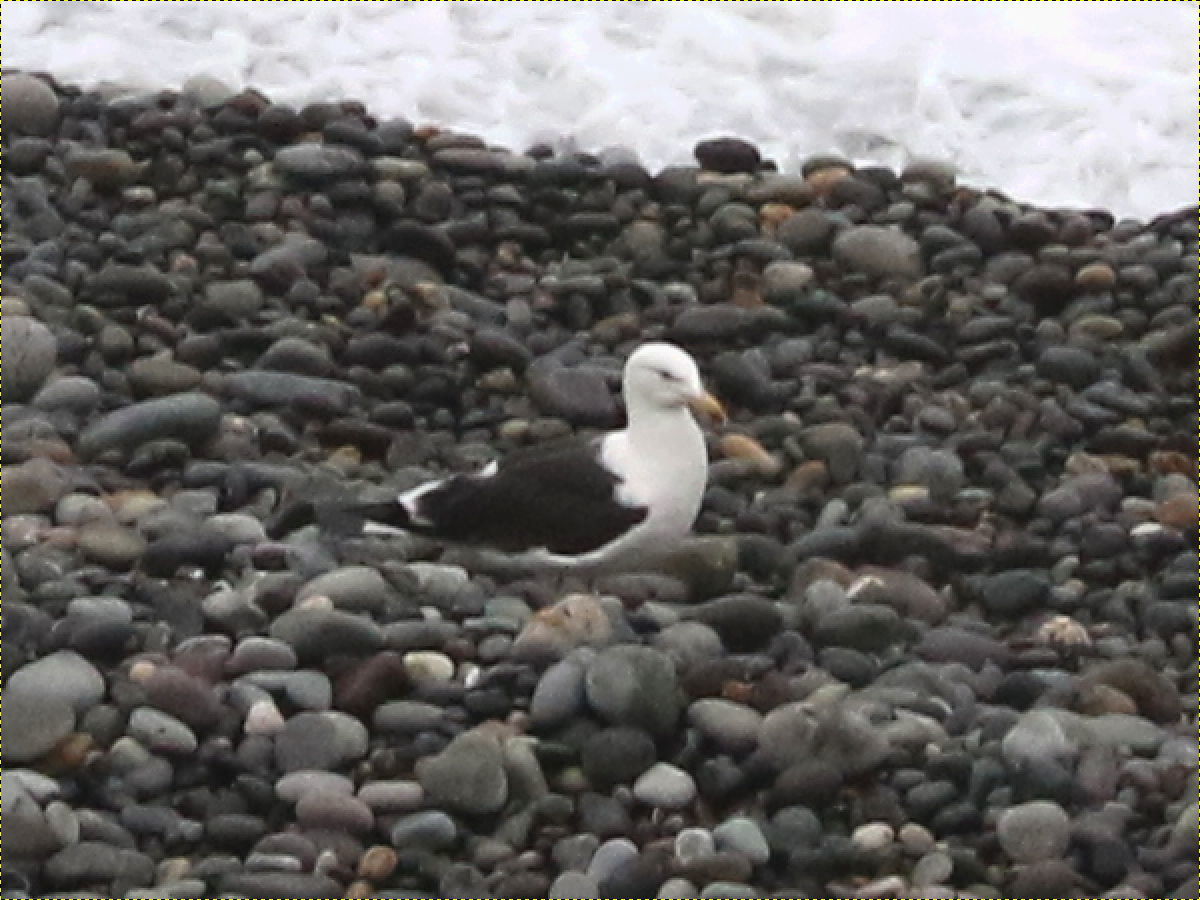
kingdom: Animalia
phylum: Chordata
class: Aves
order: Charadriiformes
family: Laridae
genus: Larus
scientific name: Larus dominicanus
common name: Kelp gull
